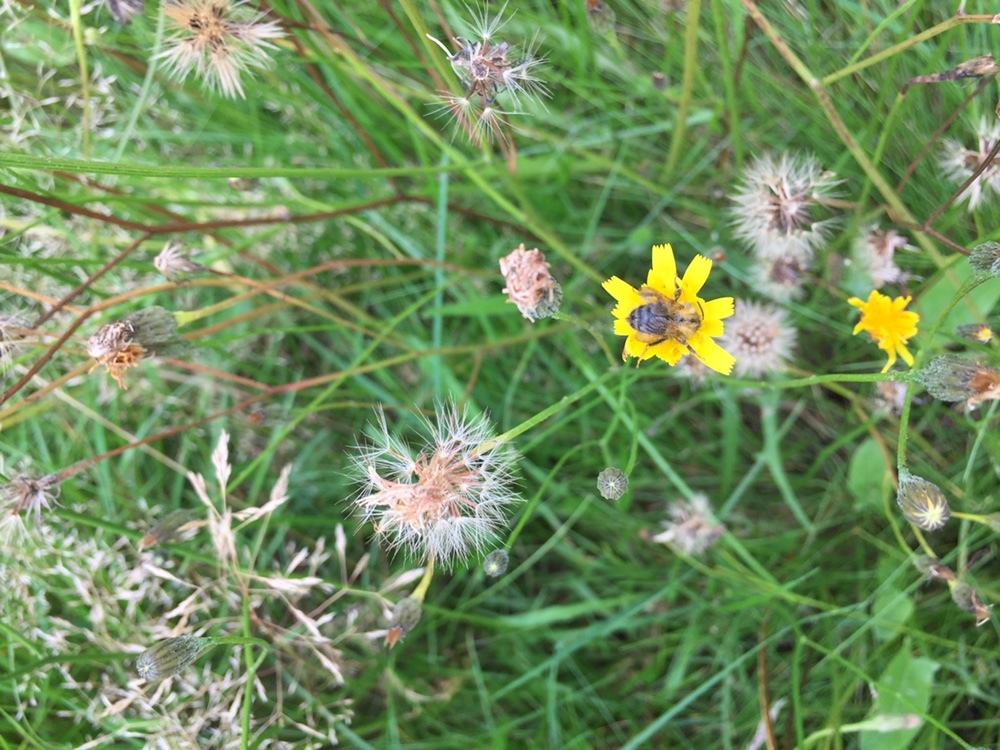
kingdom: Animalia
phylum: Arthropoda
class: Insecta
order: Hymenoptera
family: Apidae
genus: Bombus
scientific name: Bombus pascuorum
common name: Common carder bee
